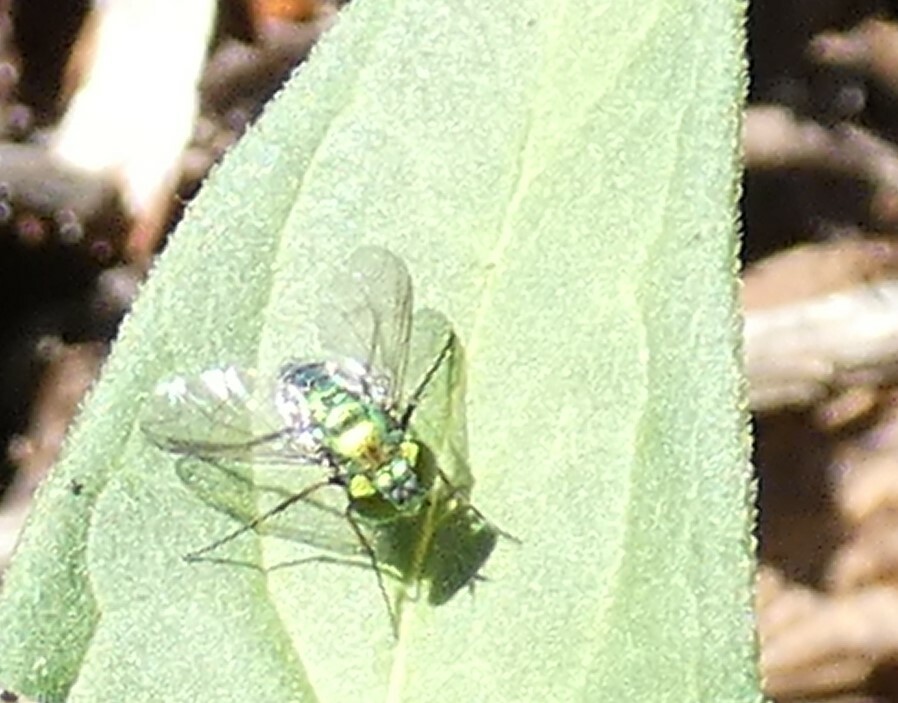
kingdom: Animalia
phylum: Arthropoda
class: Insecta
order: Diptera
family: Dolichopodidae
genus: Condylostylus
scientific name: Condylostylus longicornis
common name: Long-legged fly
